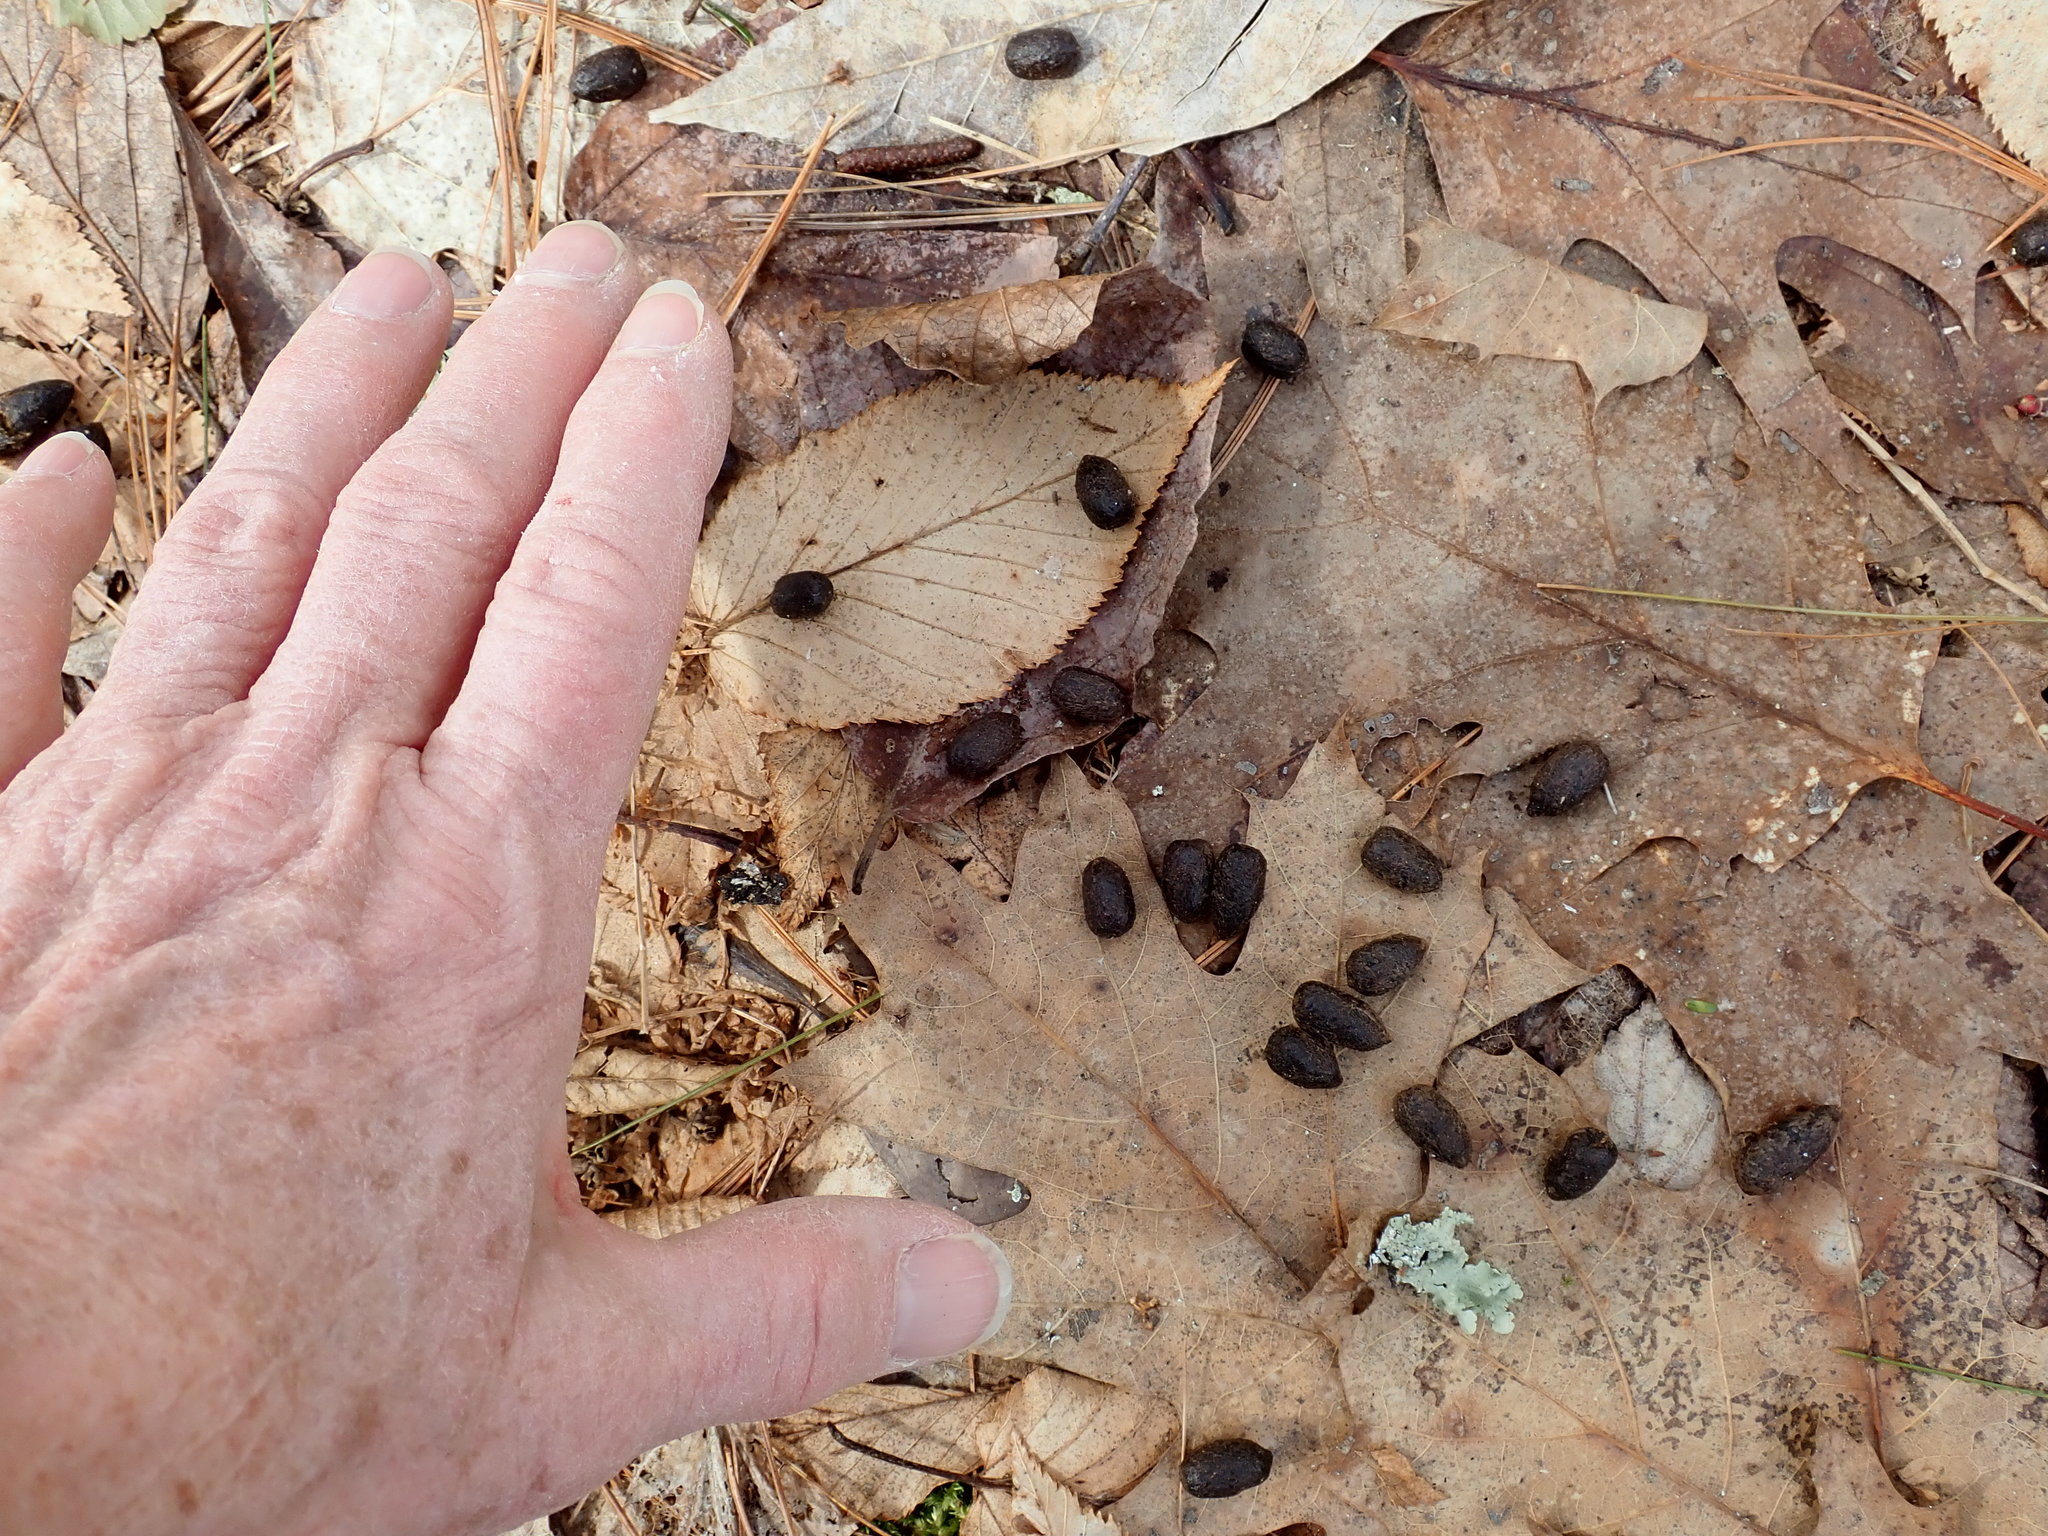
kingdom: Animalia
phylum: Chordata
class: Mammalia
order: Artiodactyla
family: Cervidae
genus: Odocoileus
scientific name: Odocoileus virginianus
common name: White-tailed deer
